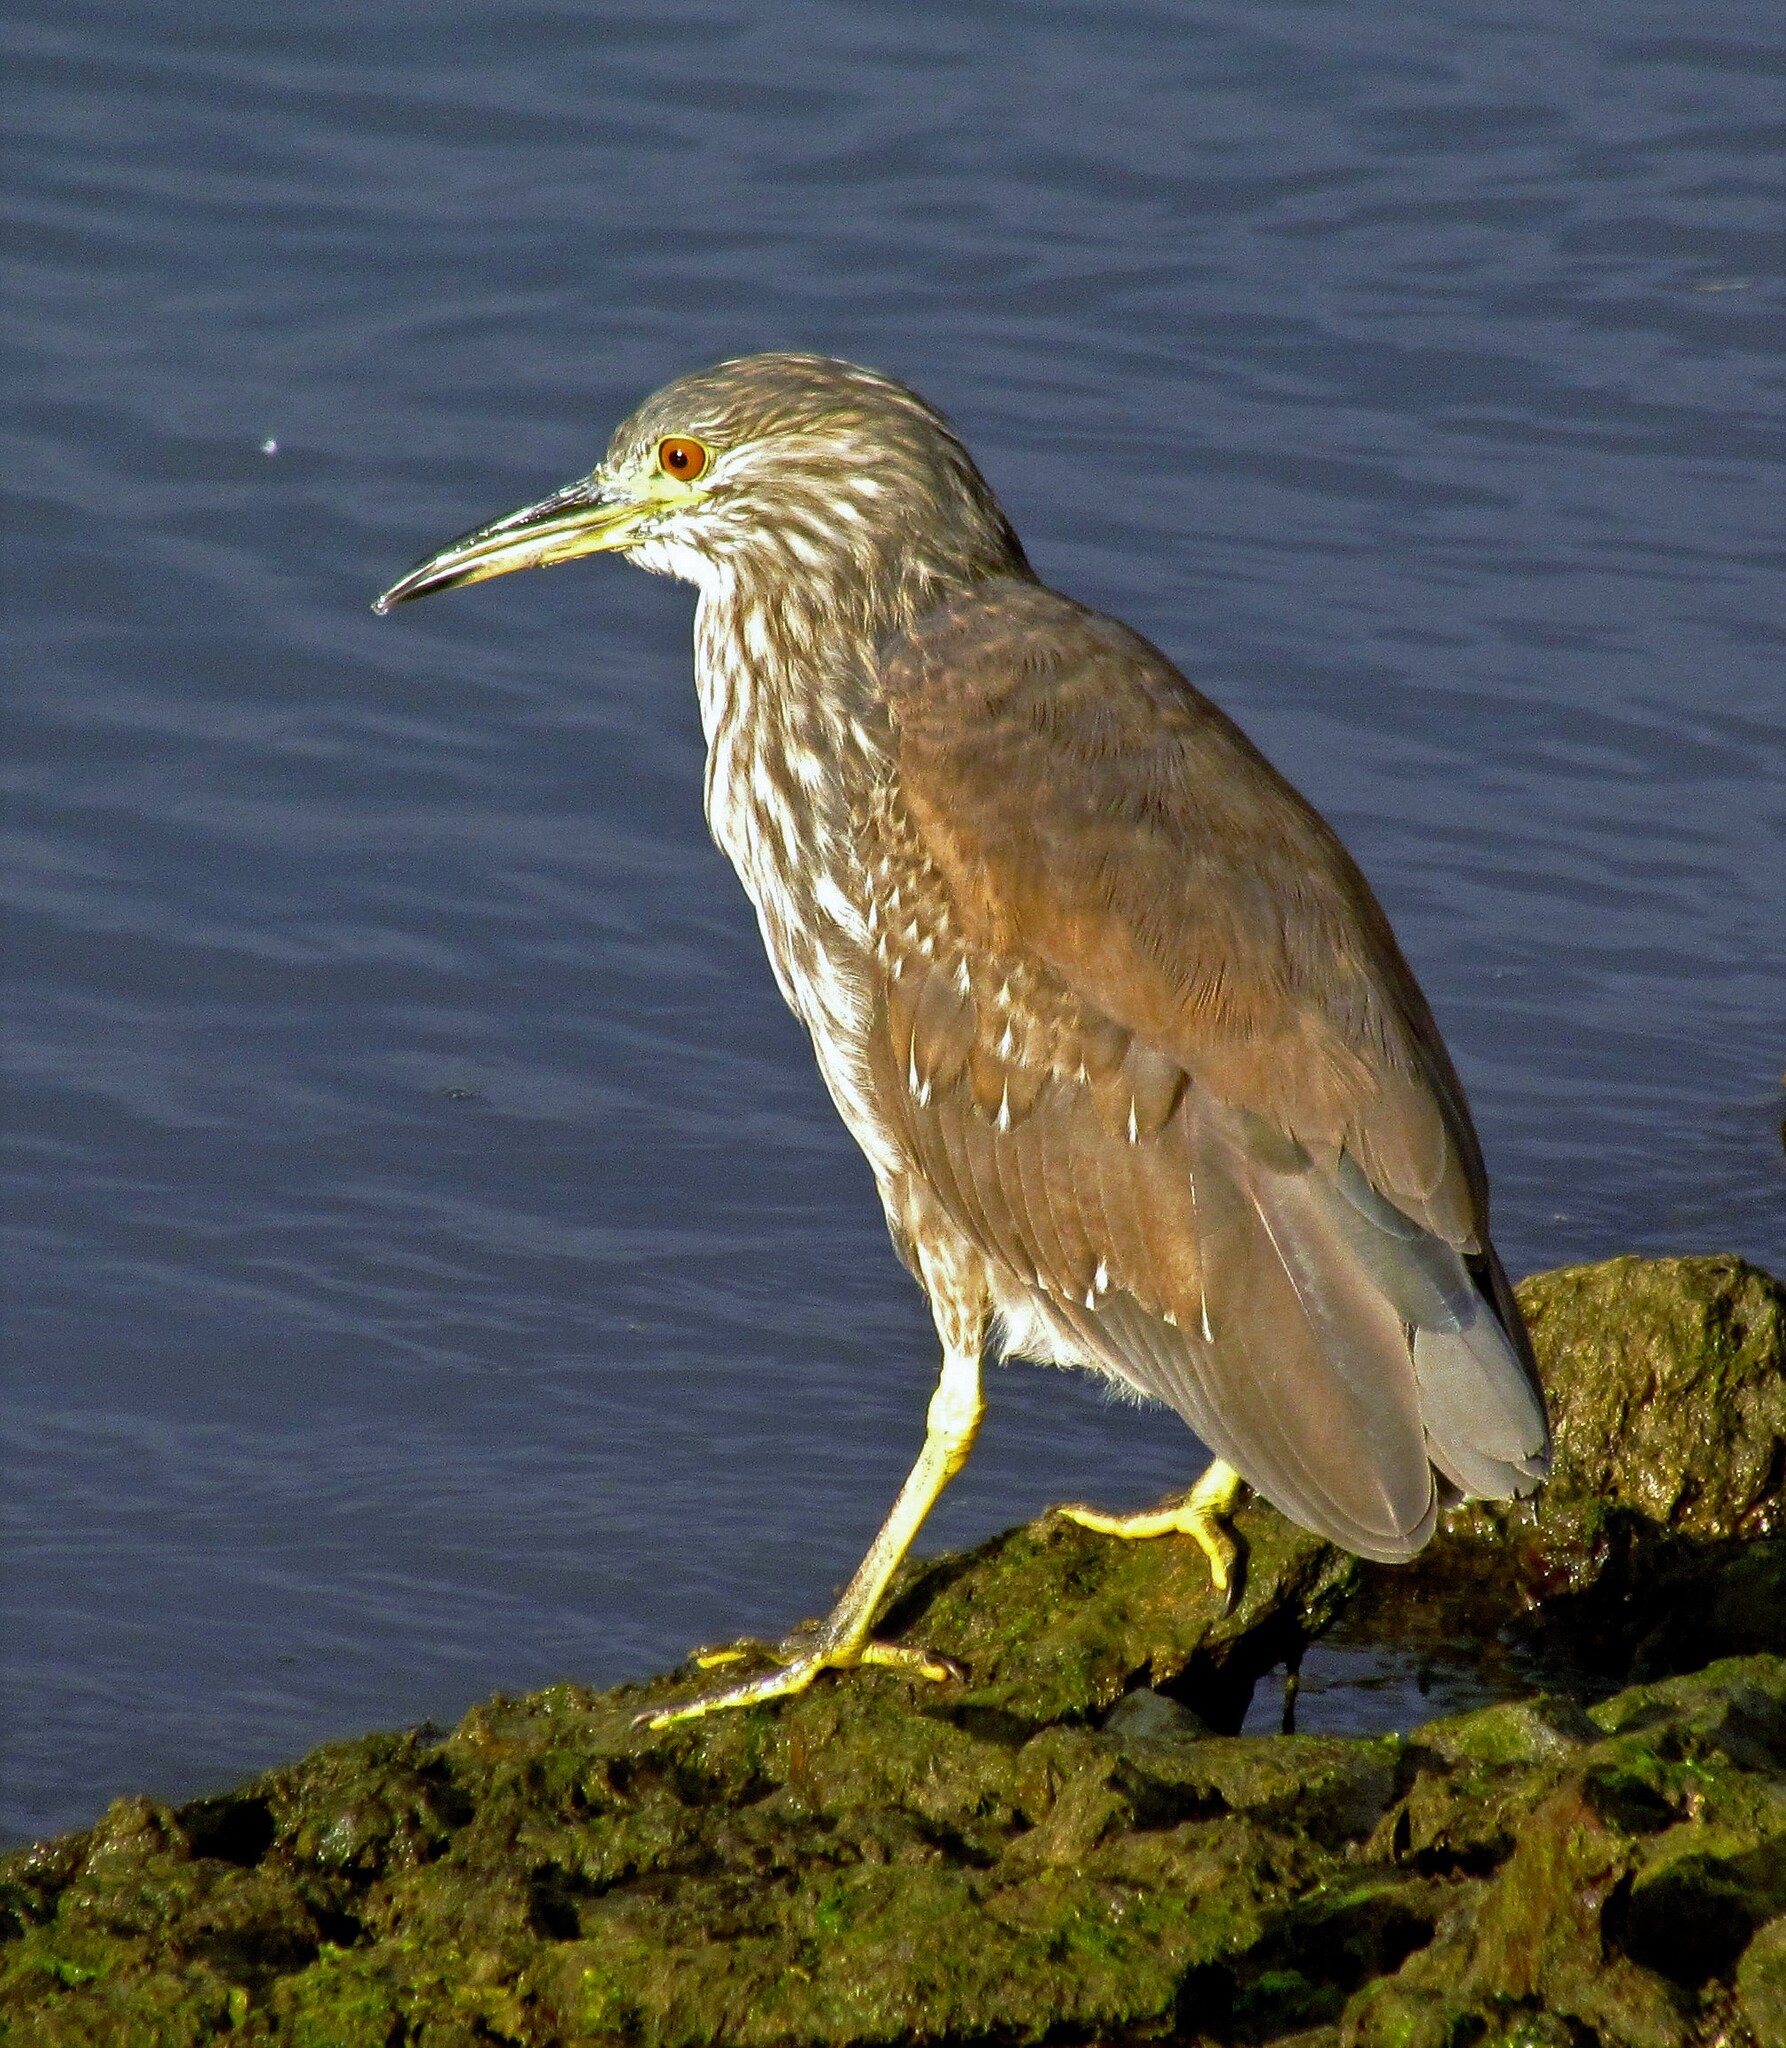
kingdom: Animalia
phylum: Chordata
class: Aves
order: Pelecaniformes
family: Ardeidae
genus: Nycticorax
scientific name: Nycticorax nycticorax
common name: Black-crowned night heron
